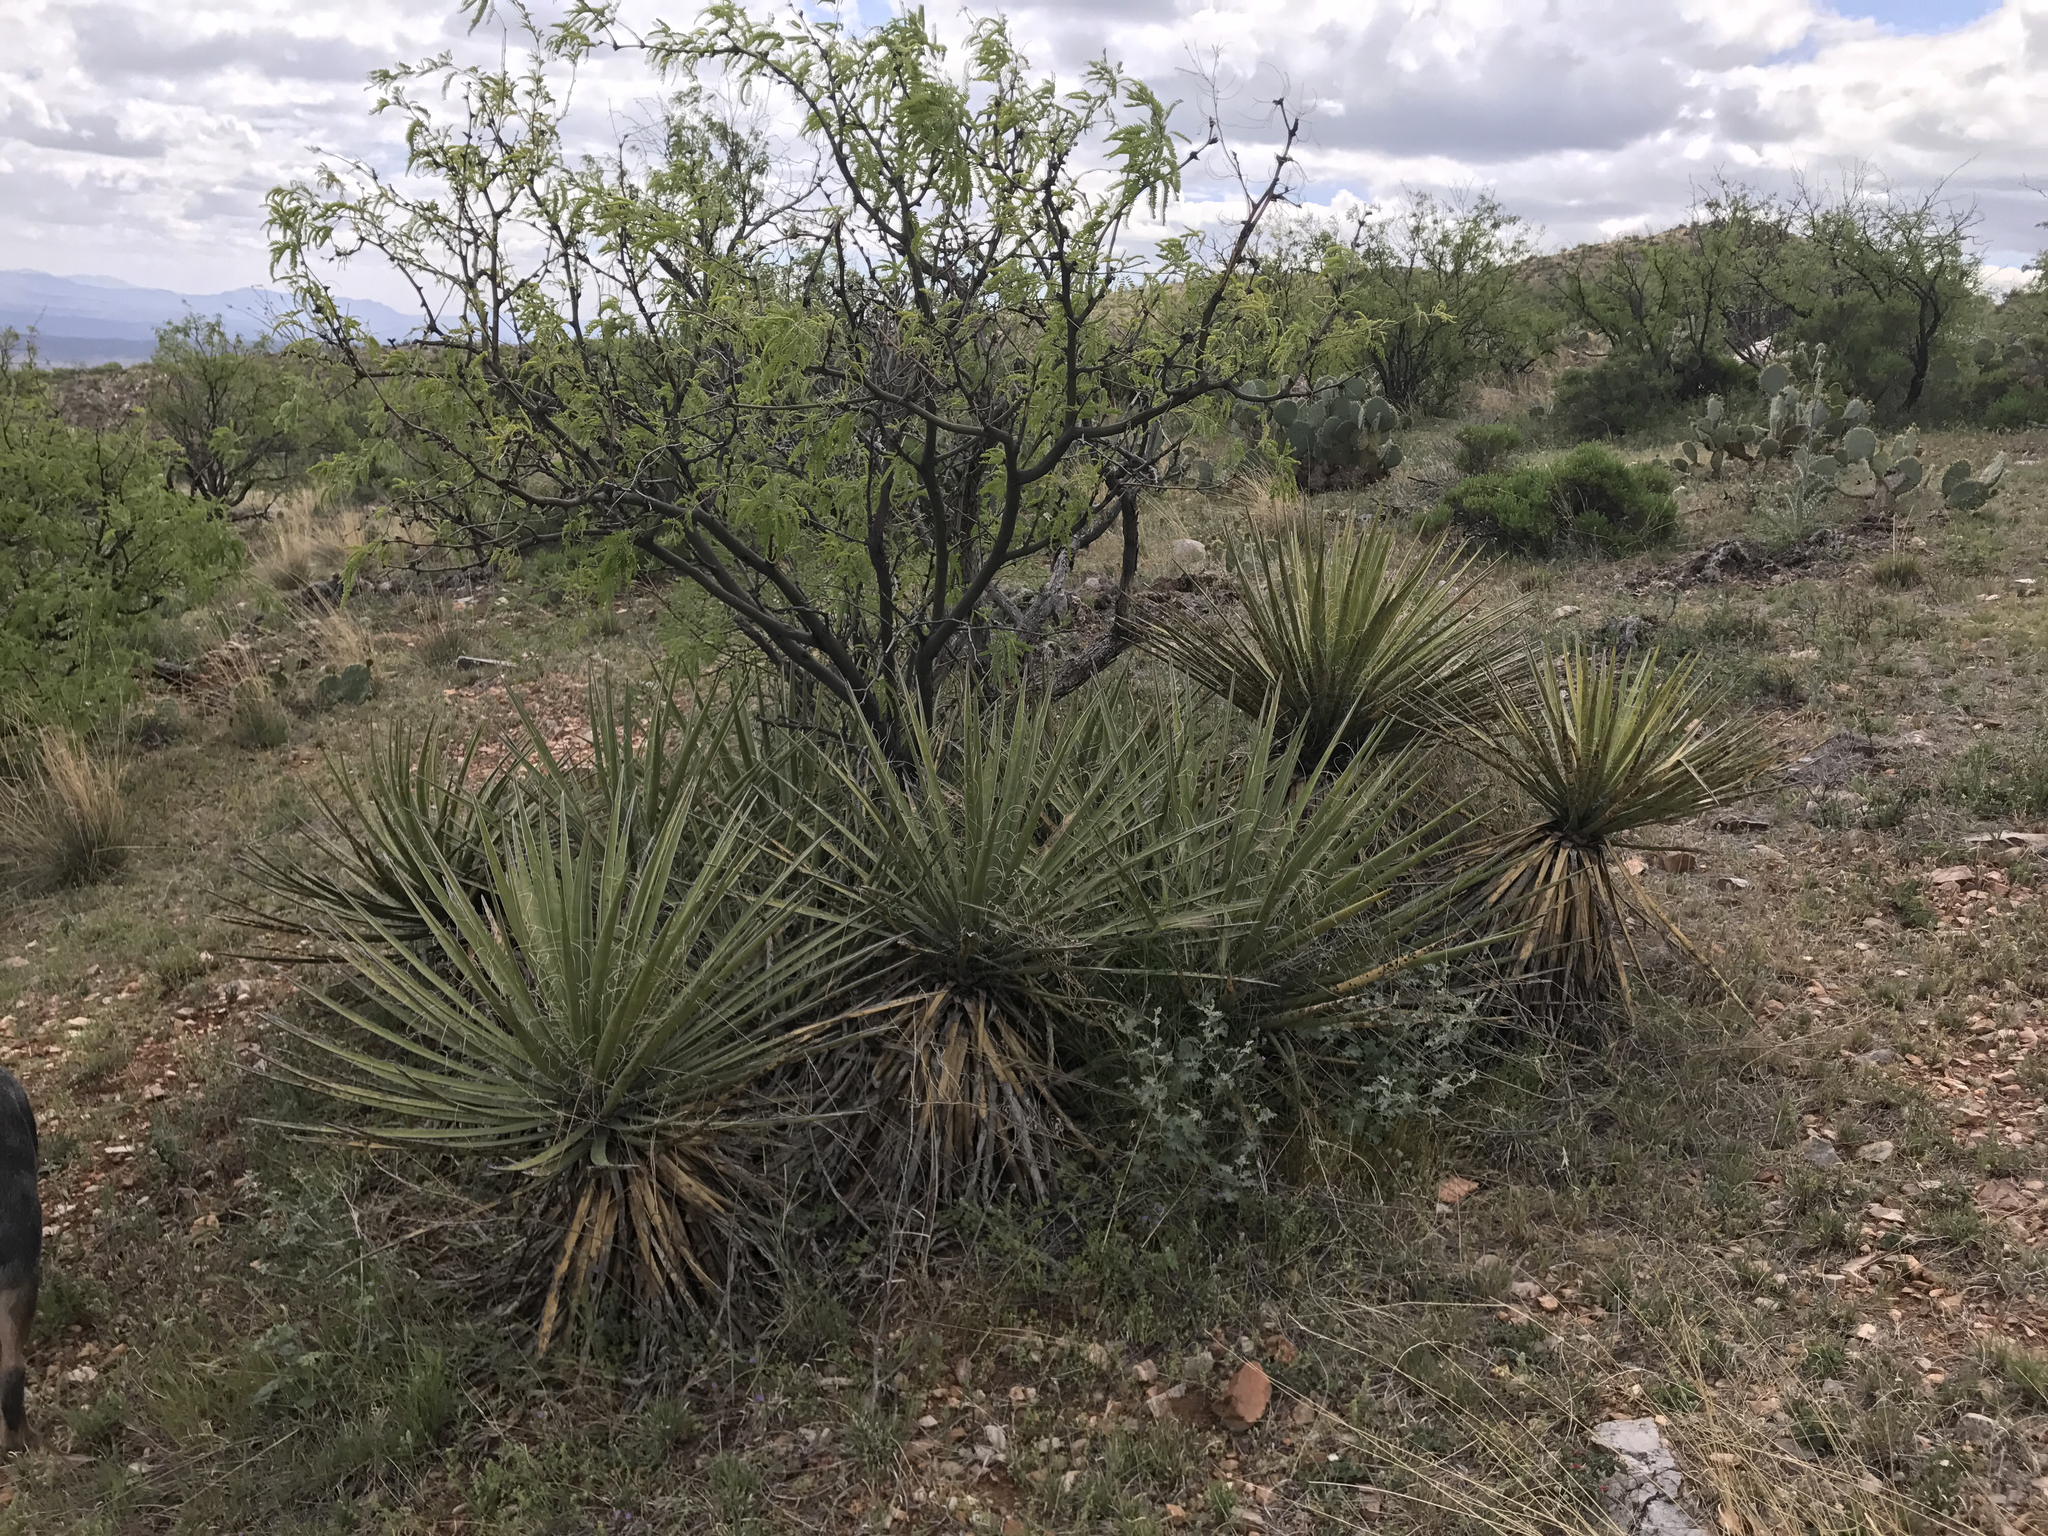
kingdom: Plantae
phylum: Tracheophyta
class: Liliopsida
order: Asparagales
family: Asparagaceae
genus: Yucca
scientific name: Yucca baccata
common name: Banana yucca
